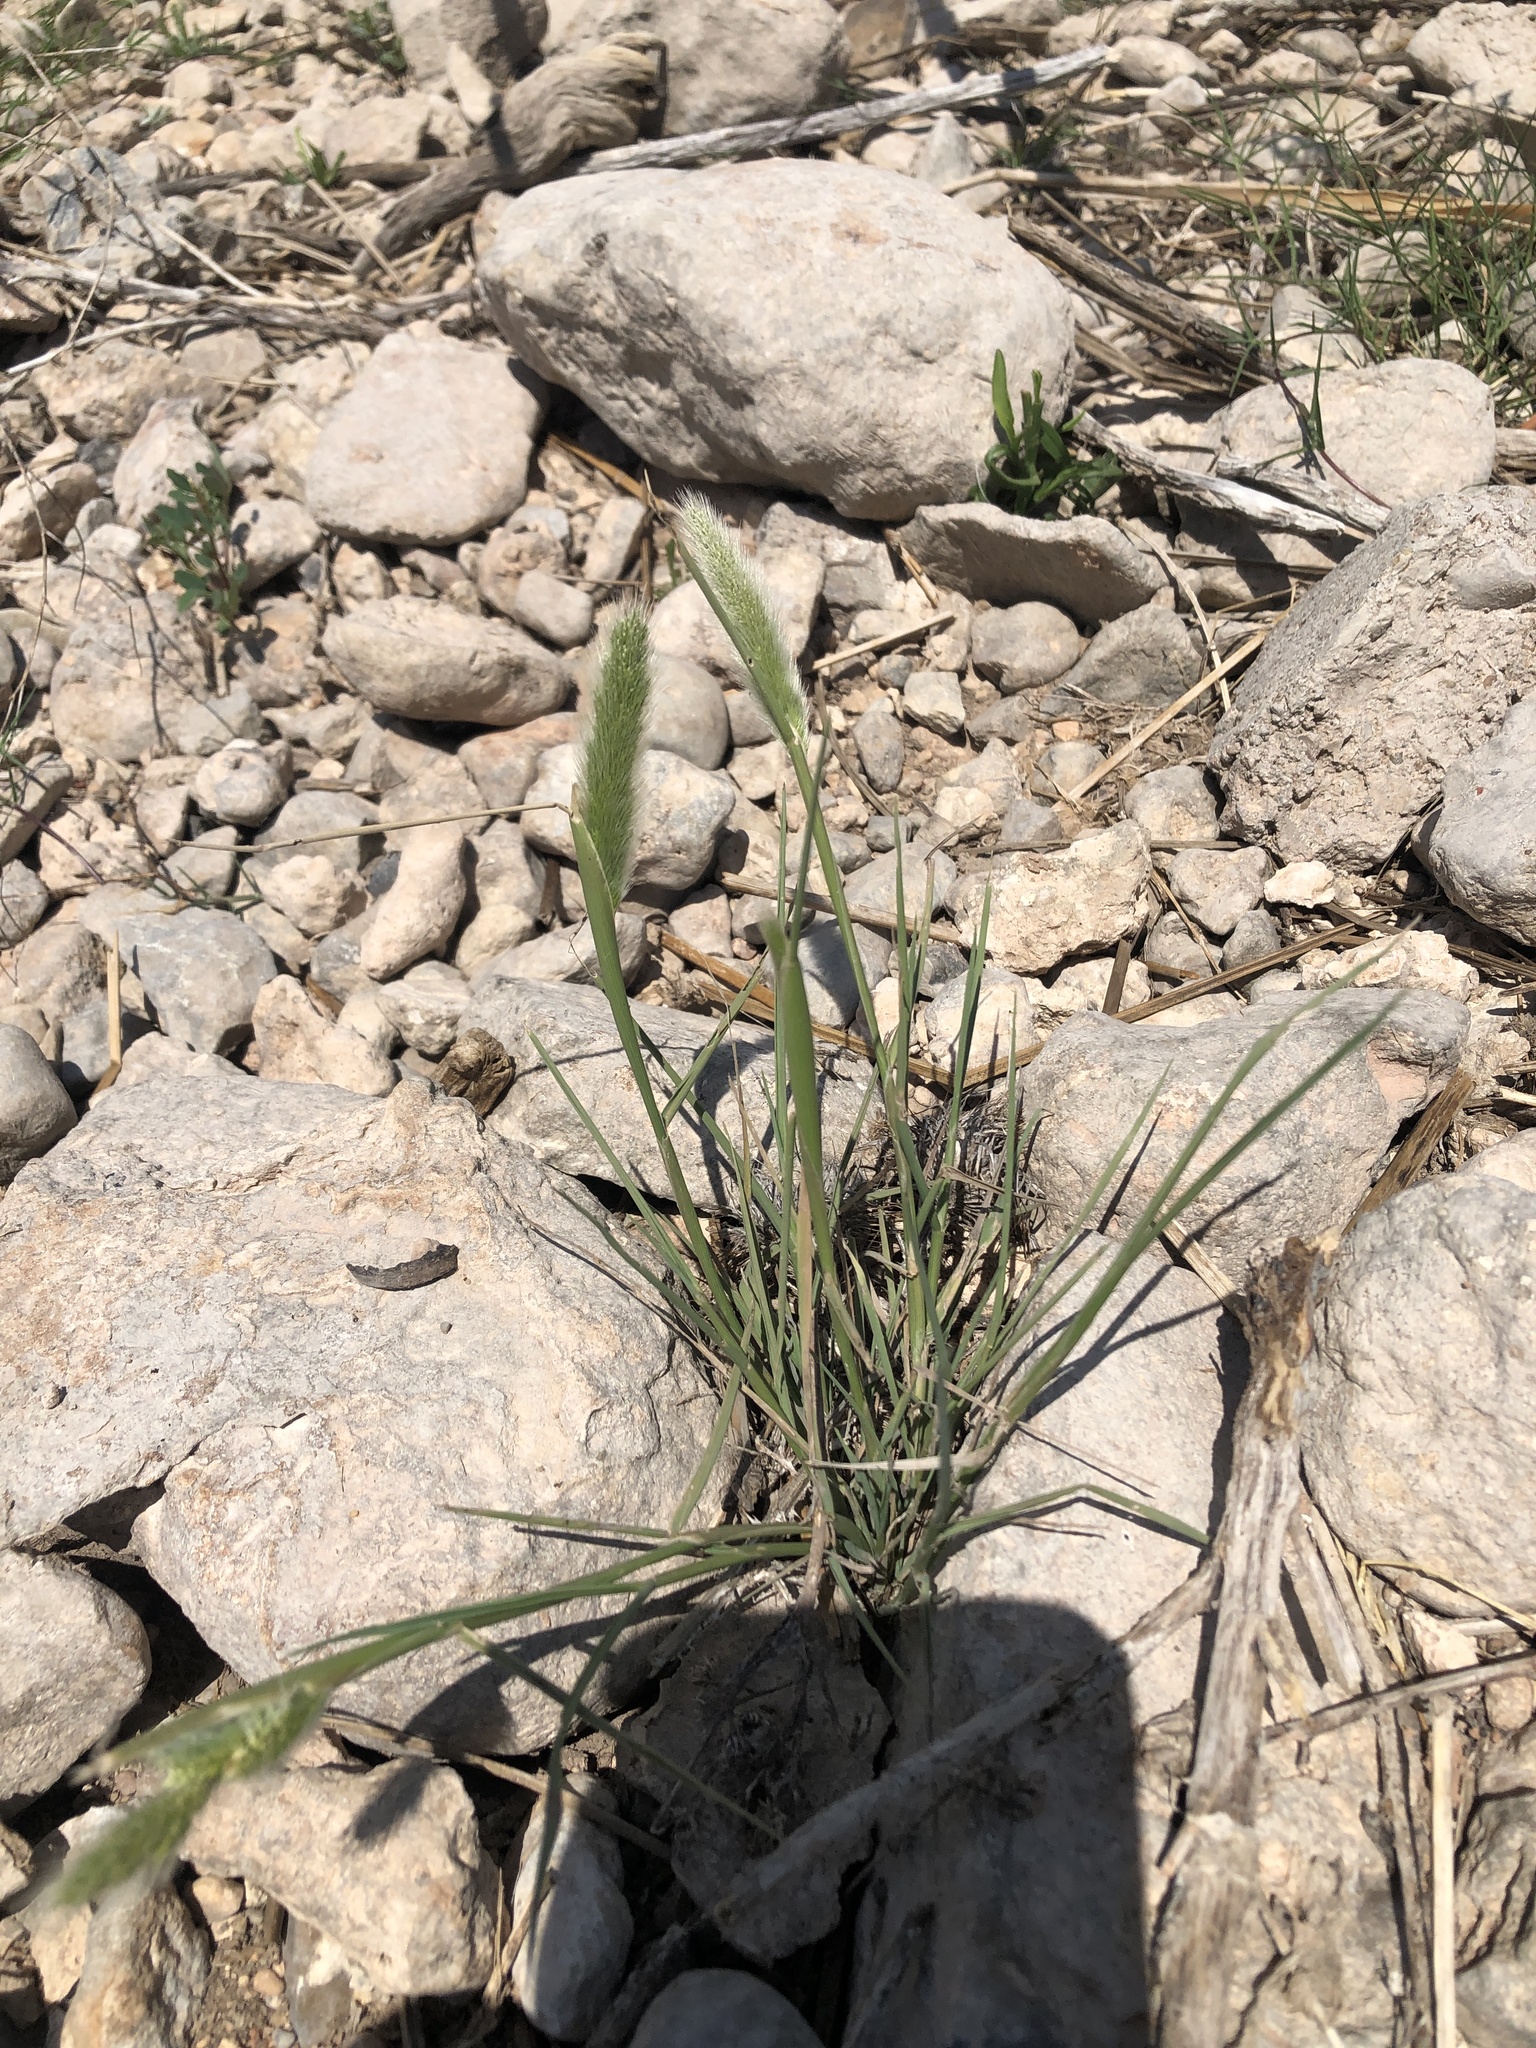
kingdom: Plantae
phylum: Tracheophyta
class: Liliopsida
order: Poales
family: Poaceae
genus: Polypogon
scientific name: Polypogon monspeliensis
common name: Annual rabbitsfoot grass
